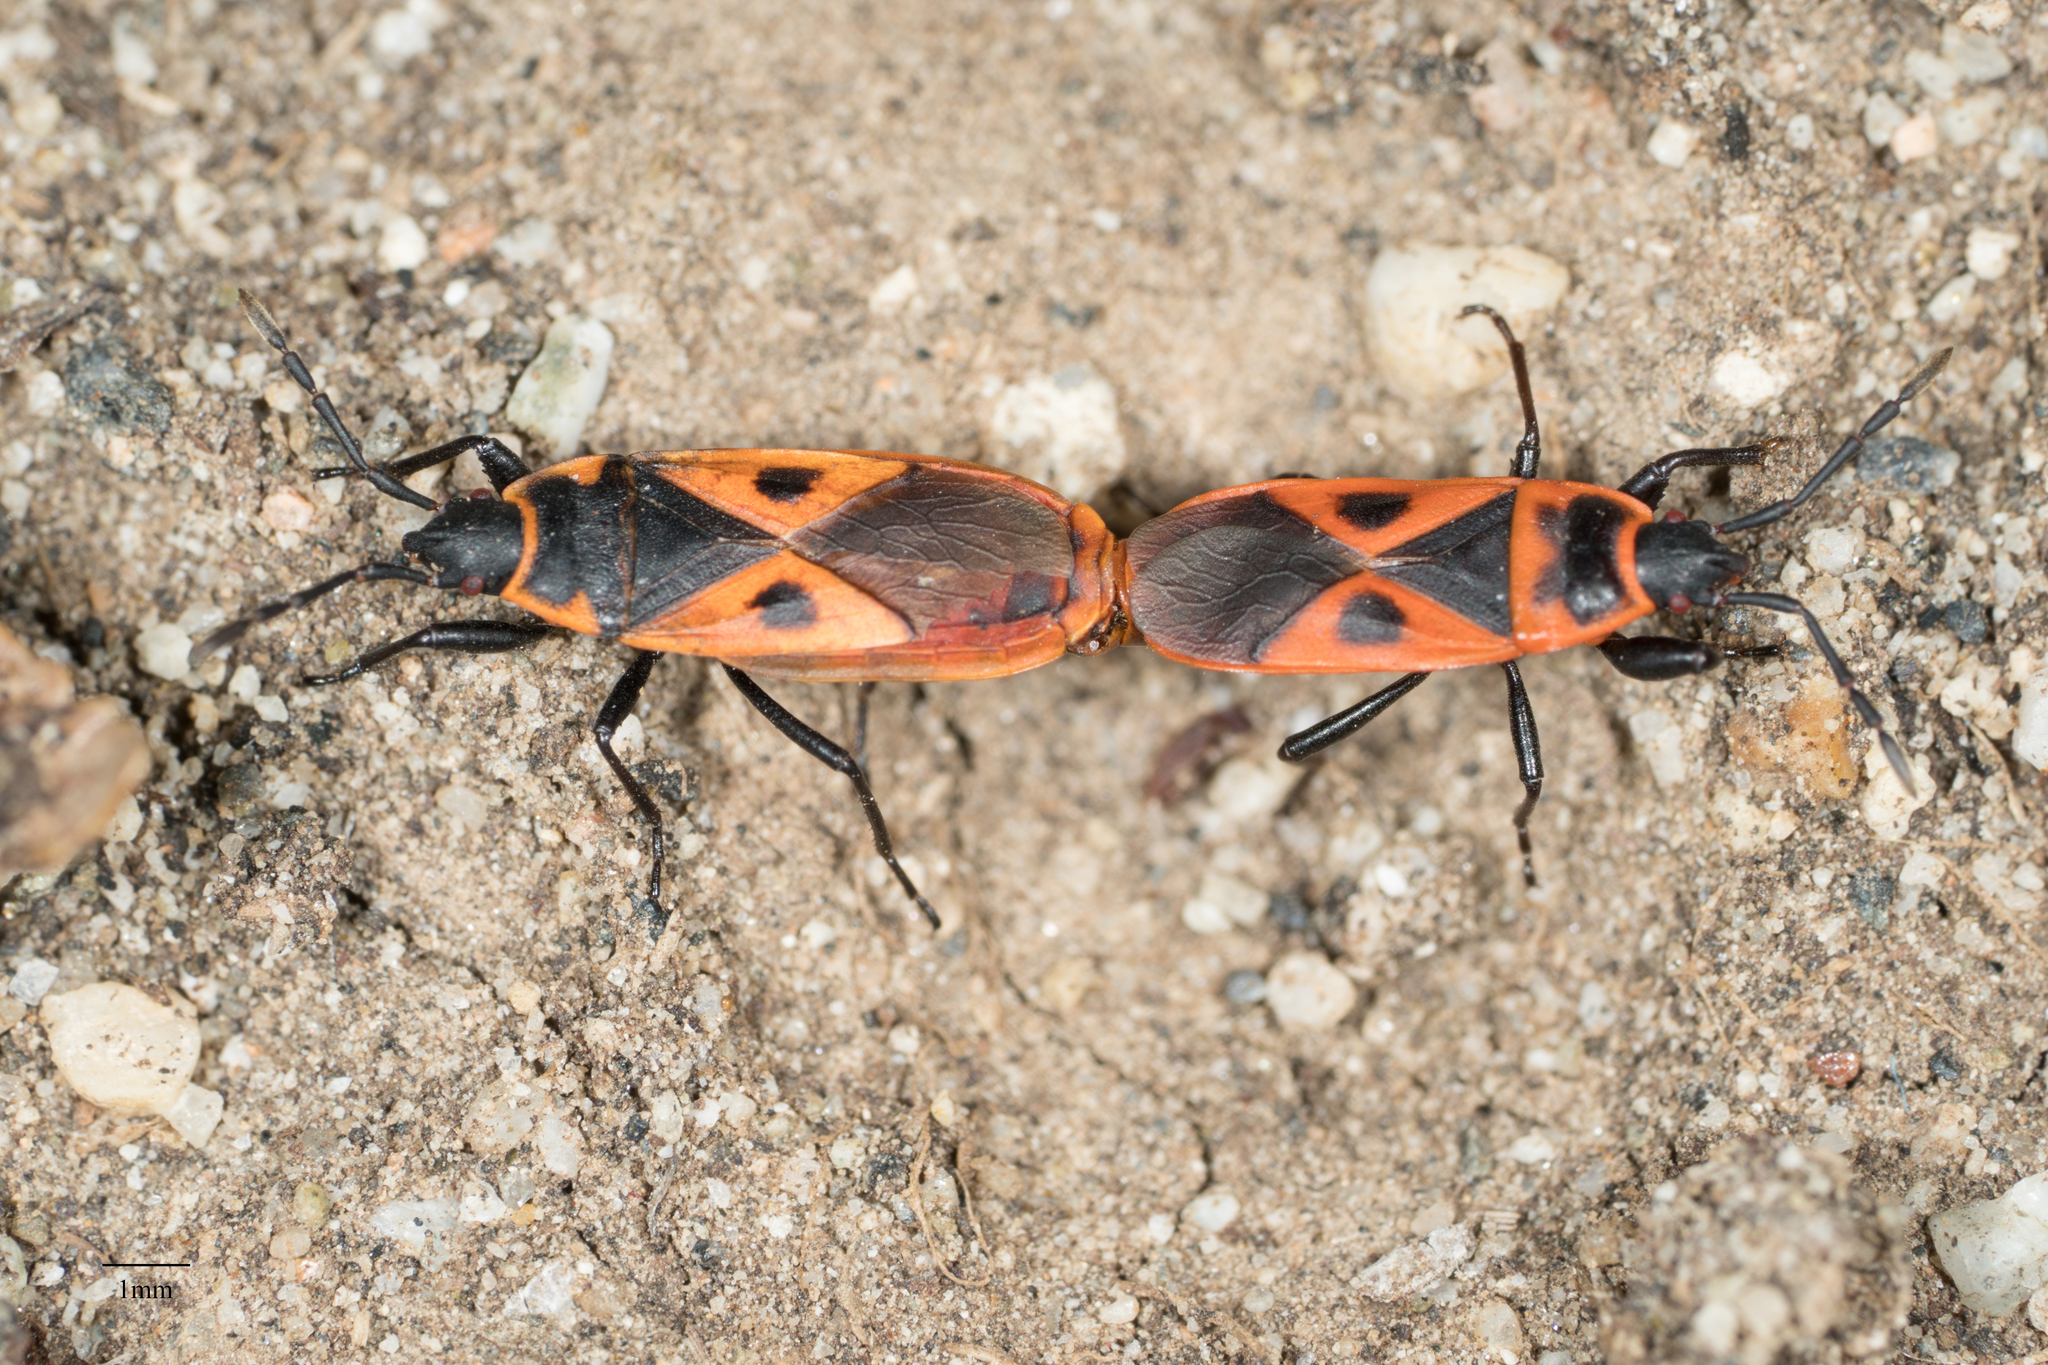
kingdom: Animalia
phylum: Arthropoda
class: Insecta
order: Hemiptera
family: Pyrrhocoridae
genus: Scantius
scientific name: Scantius aegyptius
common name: Red bug
